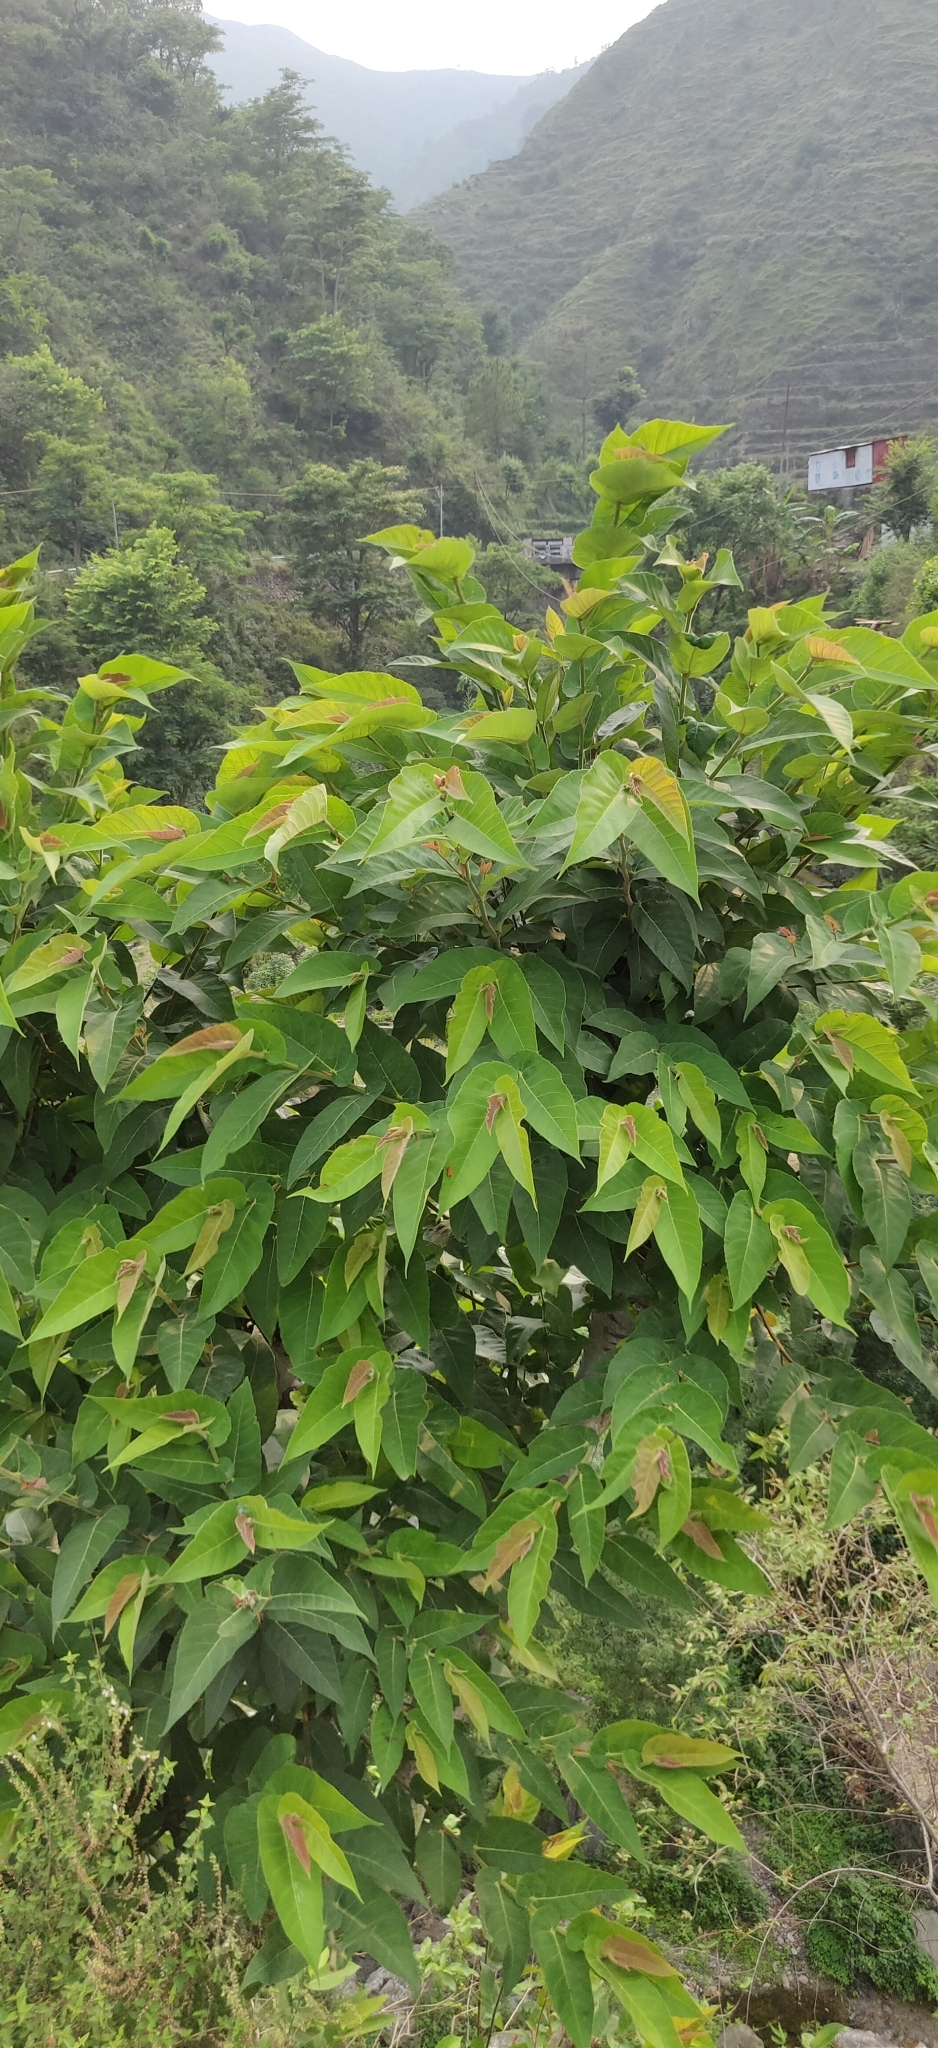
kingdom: Plantae
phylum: Tracheophyta
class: Magnoliopsida
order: Rosales
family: Moraceae
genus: Ficus
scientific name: Ficus semicordata
